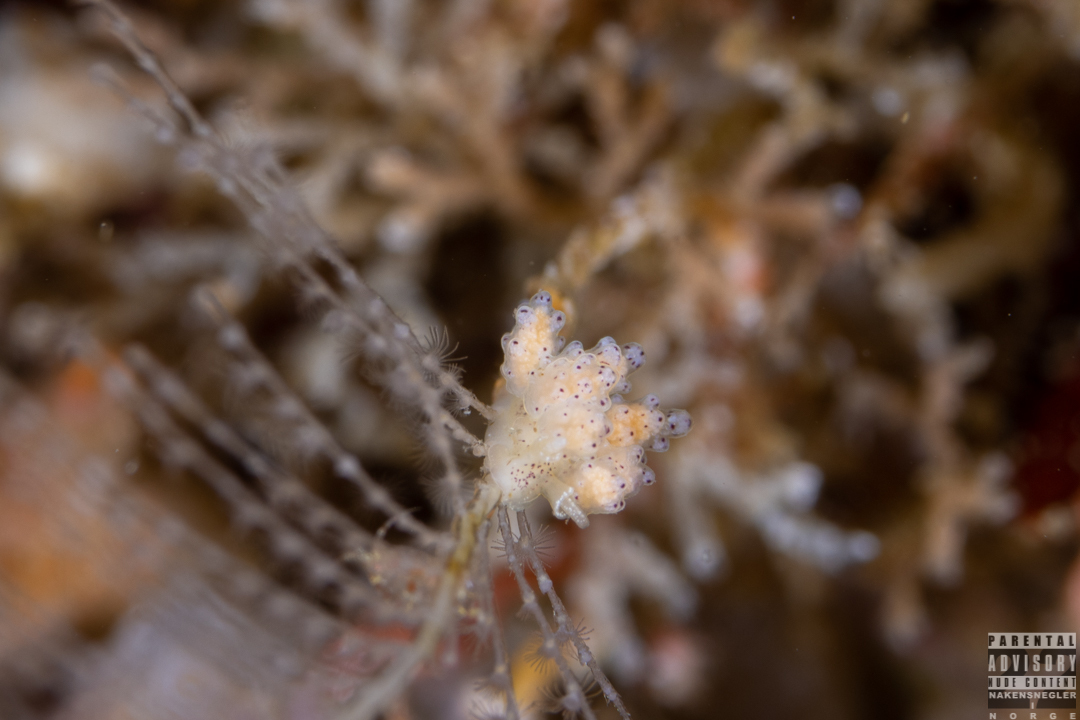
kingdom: Animalia
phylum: Mollusca
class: Gastropoda
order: Nudibranchia
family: Dotidae
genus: Doto
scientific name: Doto dunnei
